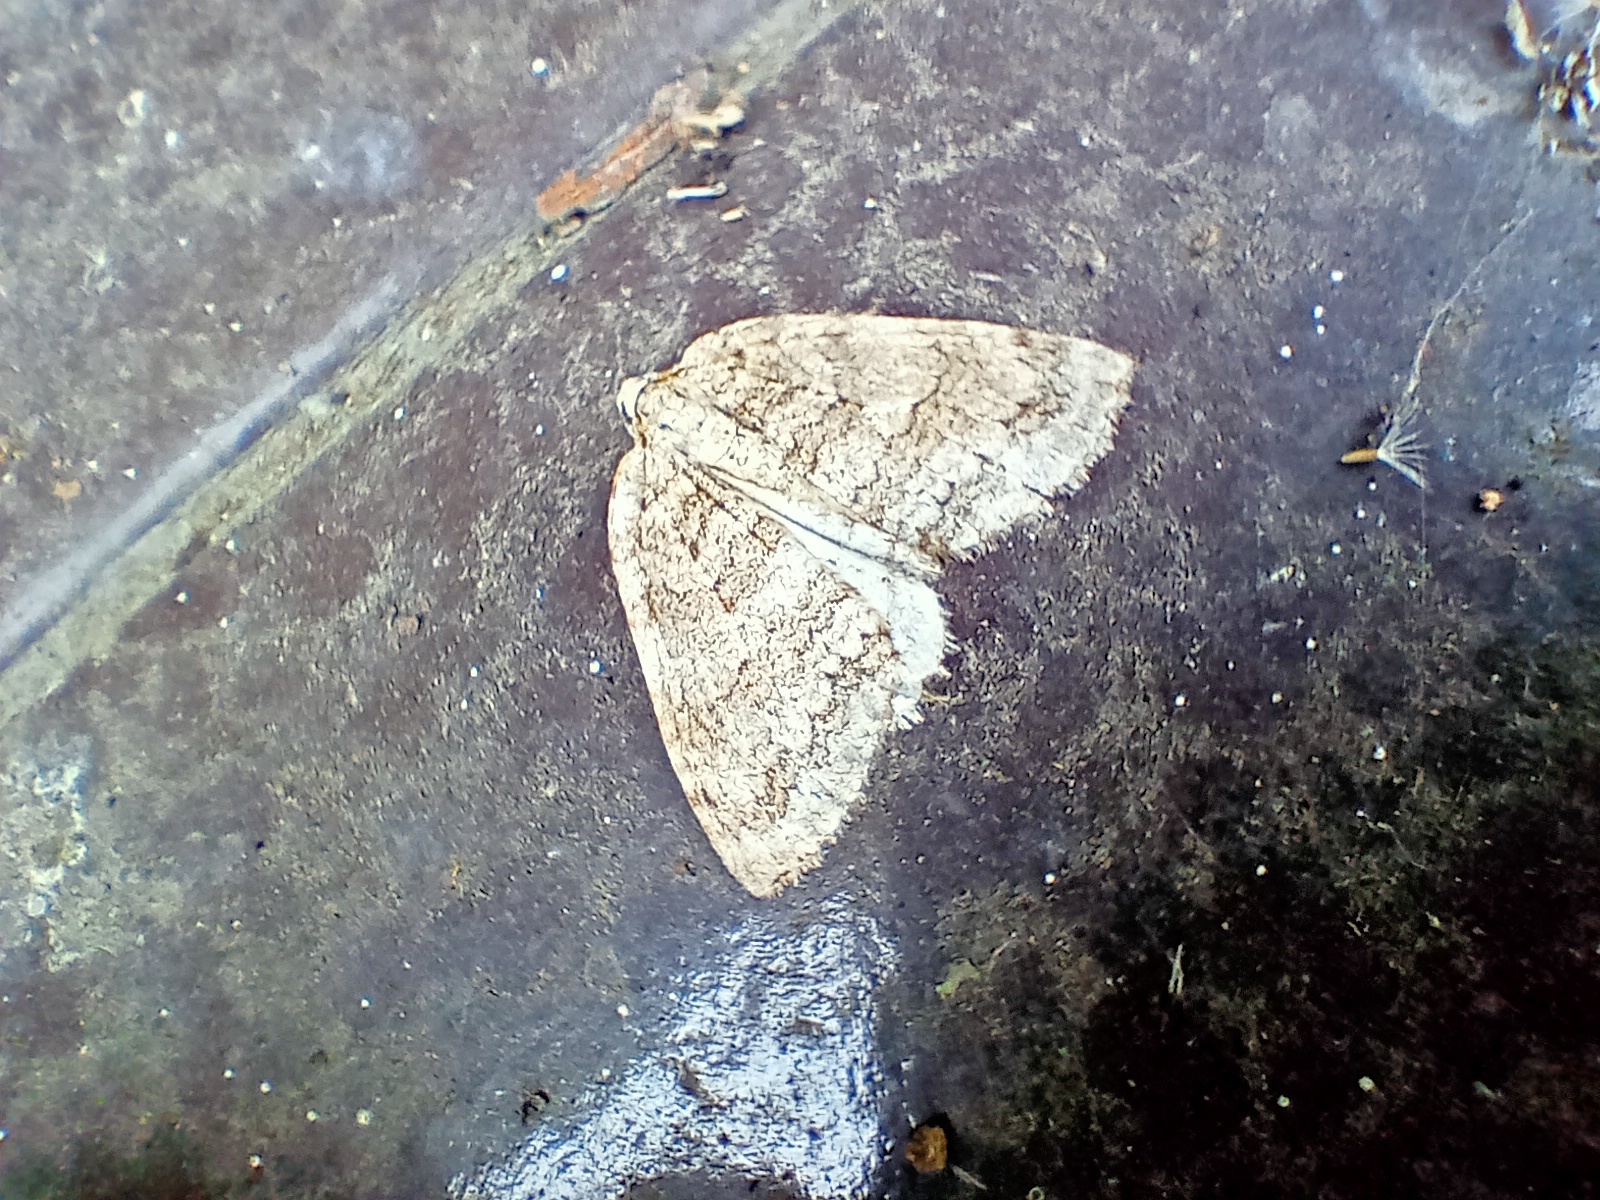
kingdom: Animalia
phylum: Arthropoda
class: Insecta
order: Lepidoptera
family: Geometridae
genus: Epirrita
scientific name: Epirrita dilutata
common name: November moth
